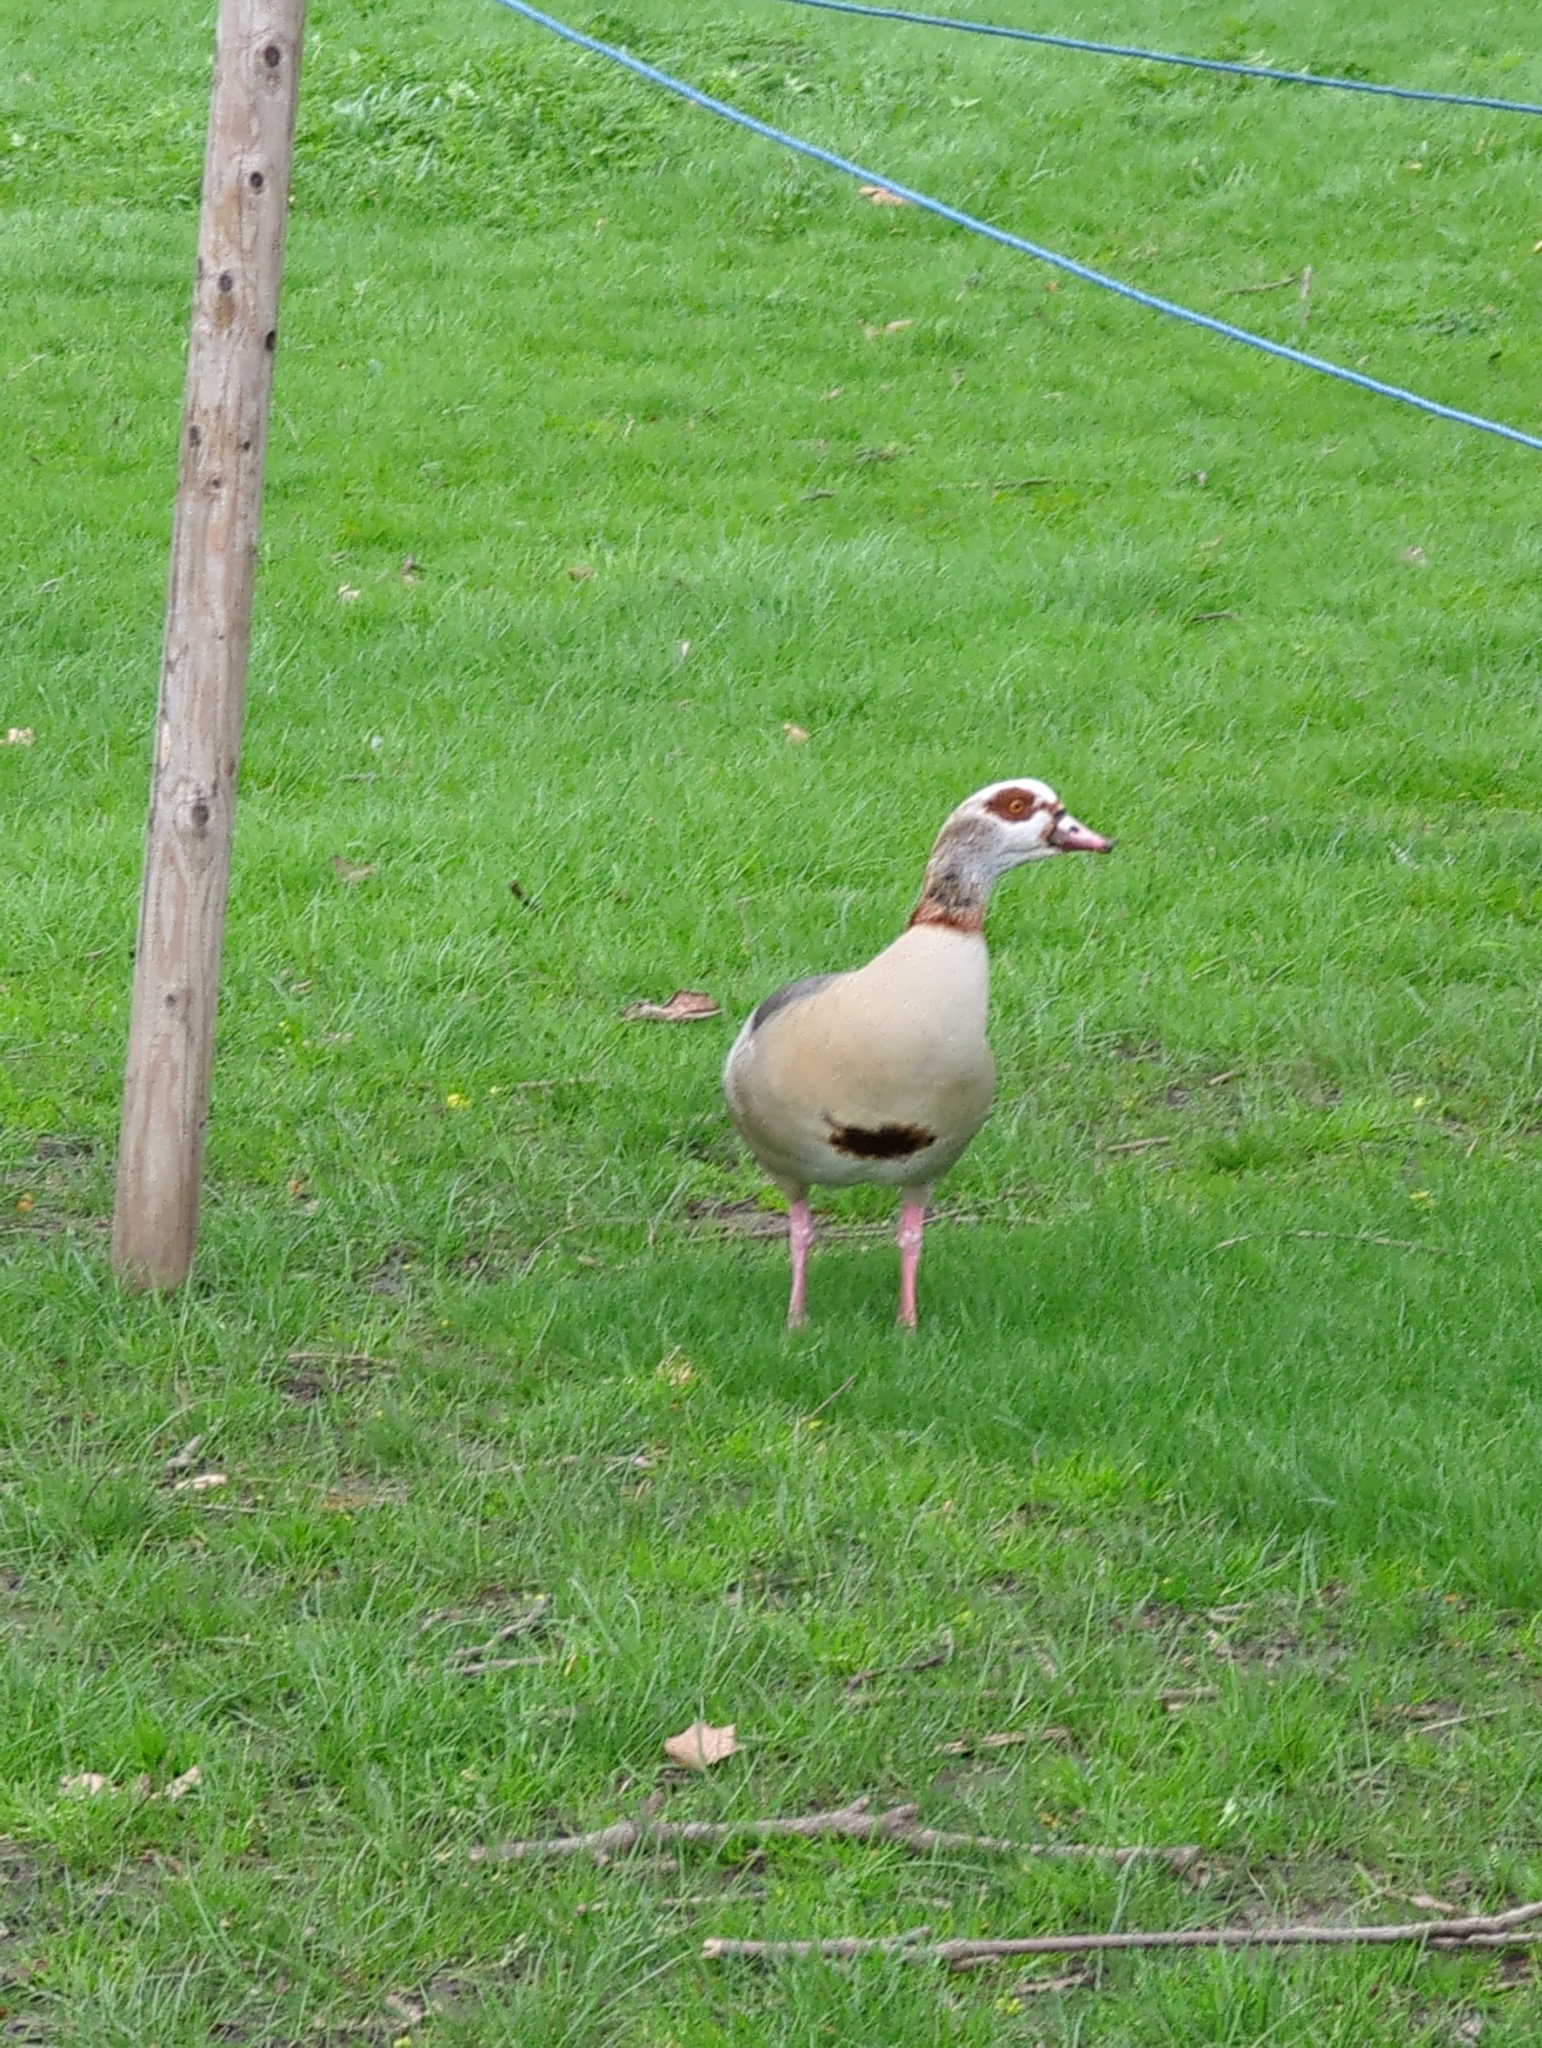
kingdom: Animalia
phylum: Chordata
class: Aves
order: Anseriformes
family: Anatidae
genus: Alopochen
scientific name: Alopochen aegyptiaca
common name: Egyptian goose
